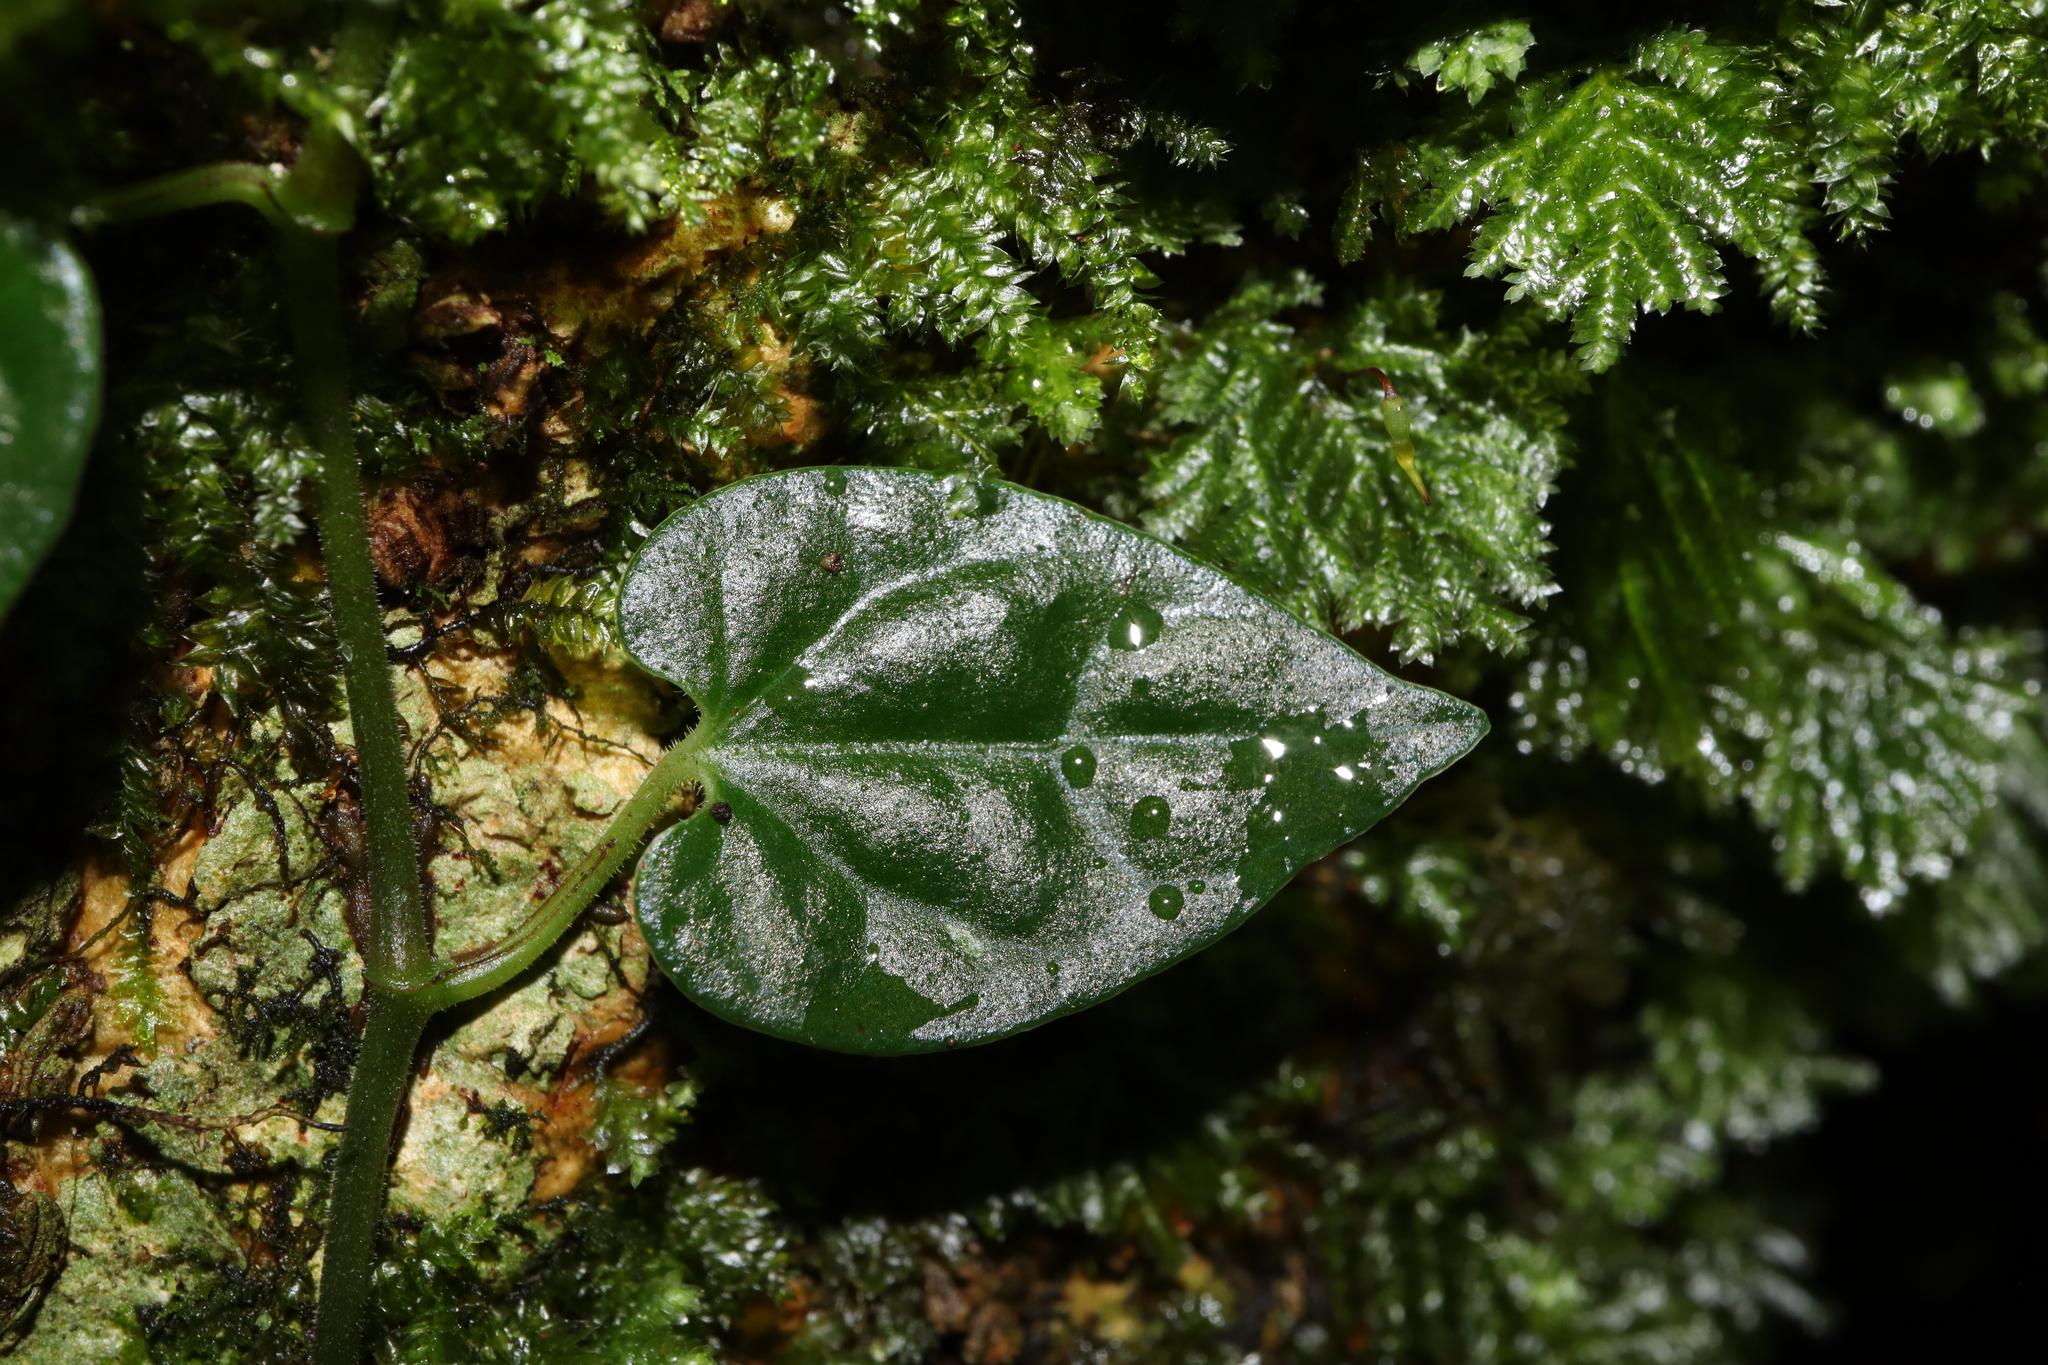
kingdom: Plantae
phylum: Tracheophyta
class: Magnoliopsida
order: Piperales
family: Piperaceae
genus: Piper
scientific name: Piper hederaceum
